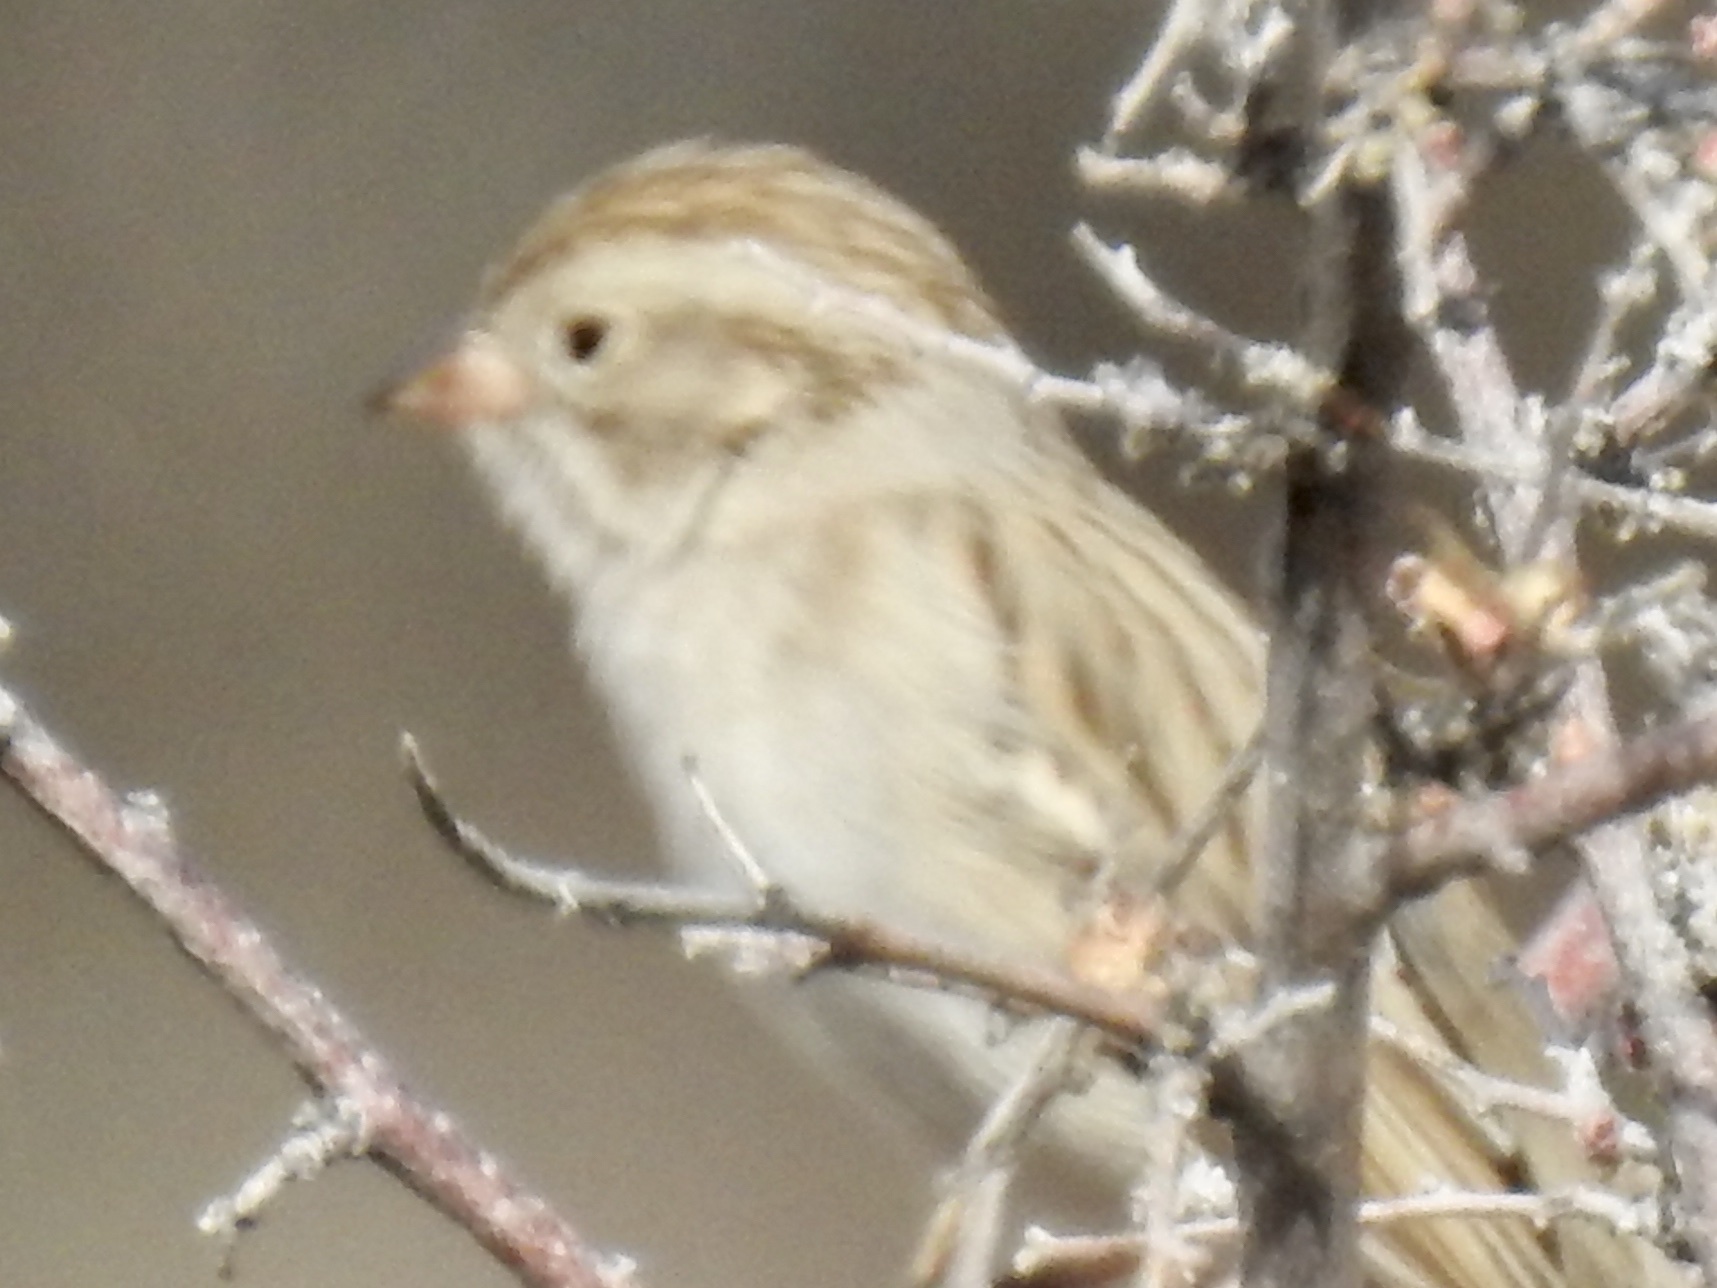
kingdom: Animalia
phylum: Chordata
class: Aves
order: Passeriformes
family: Passerellidae
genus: Spizella
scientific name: Spizella breweri
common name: Brewer's sparrow
